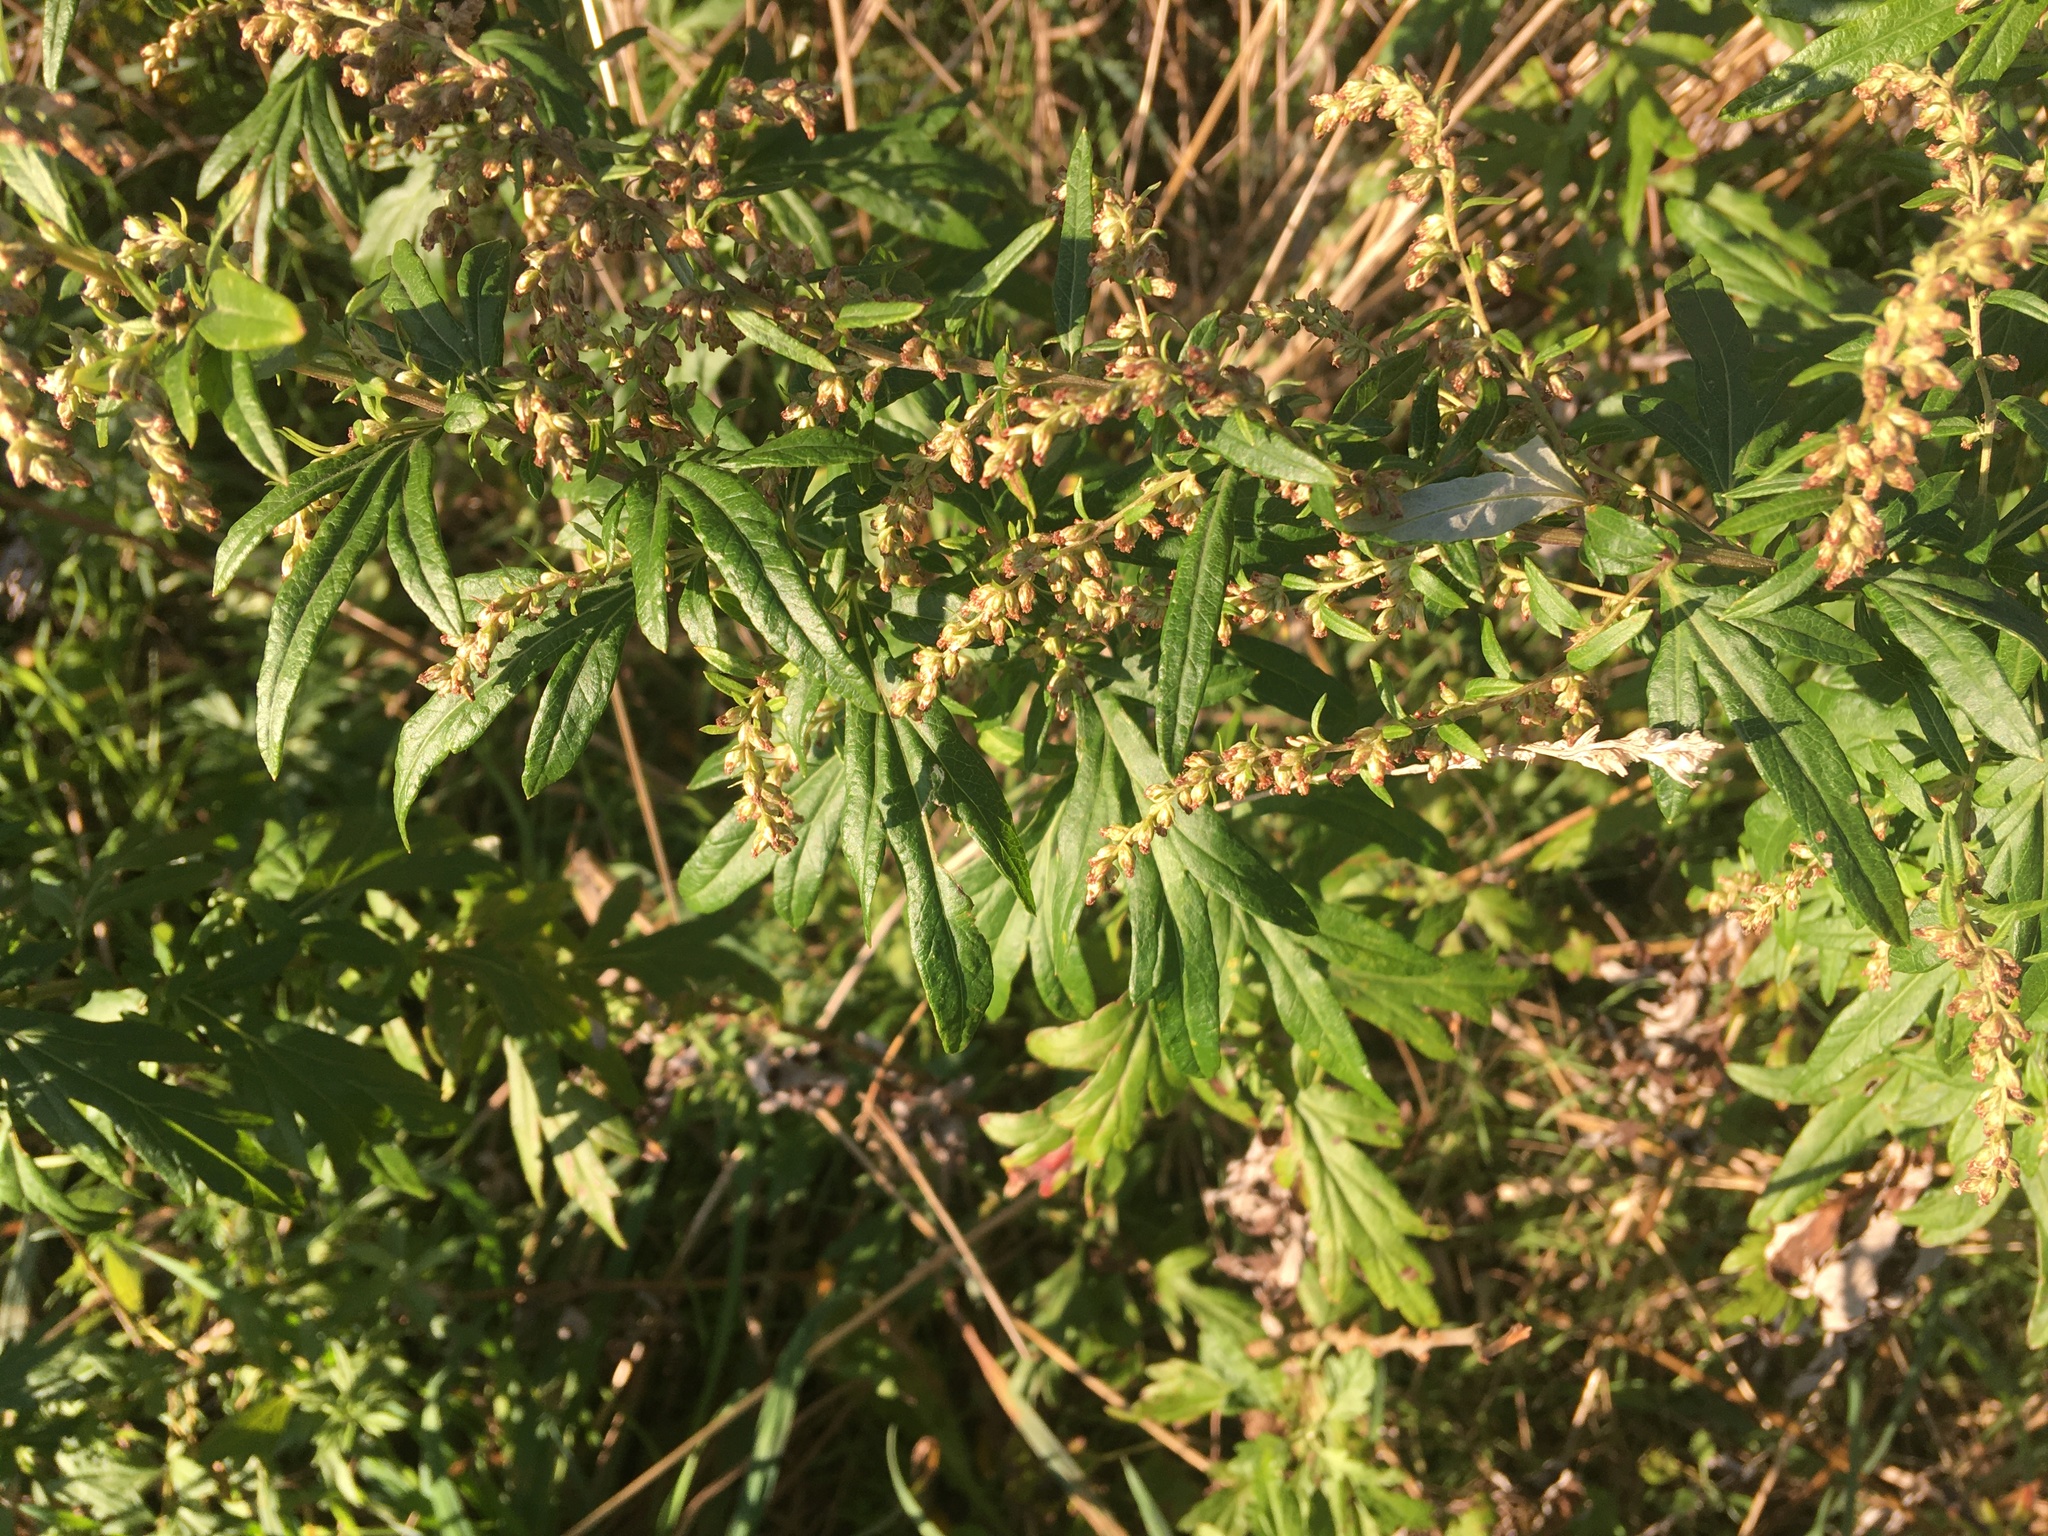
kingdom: Plantae
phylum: Tracheophyta
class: Magnoliopsida
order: Asterales
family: Asteraceae
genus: Artemisia
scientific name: Artemisia vulgaris
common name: Mugwort
